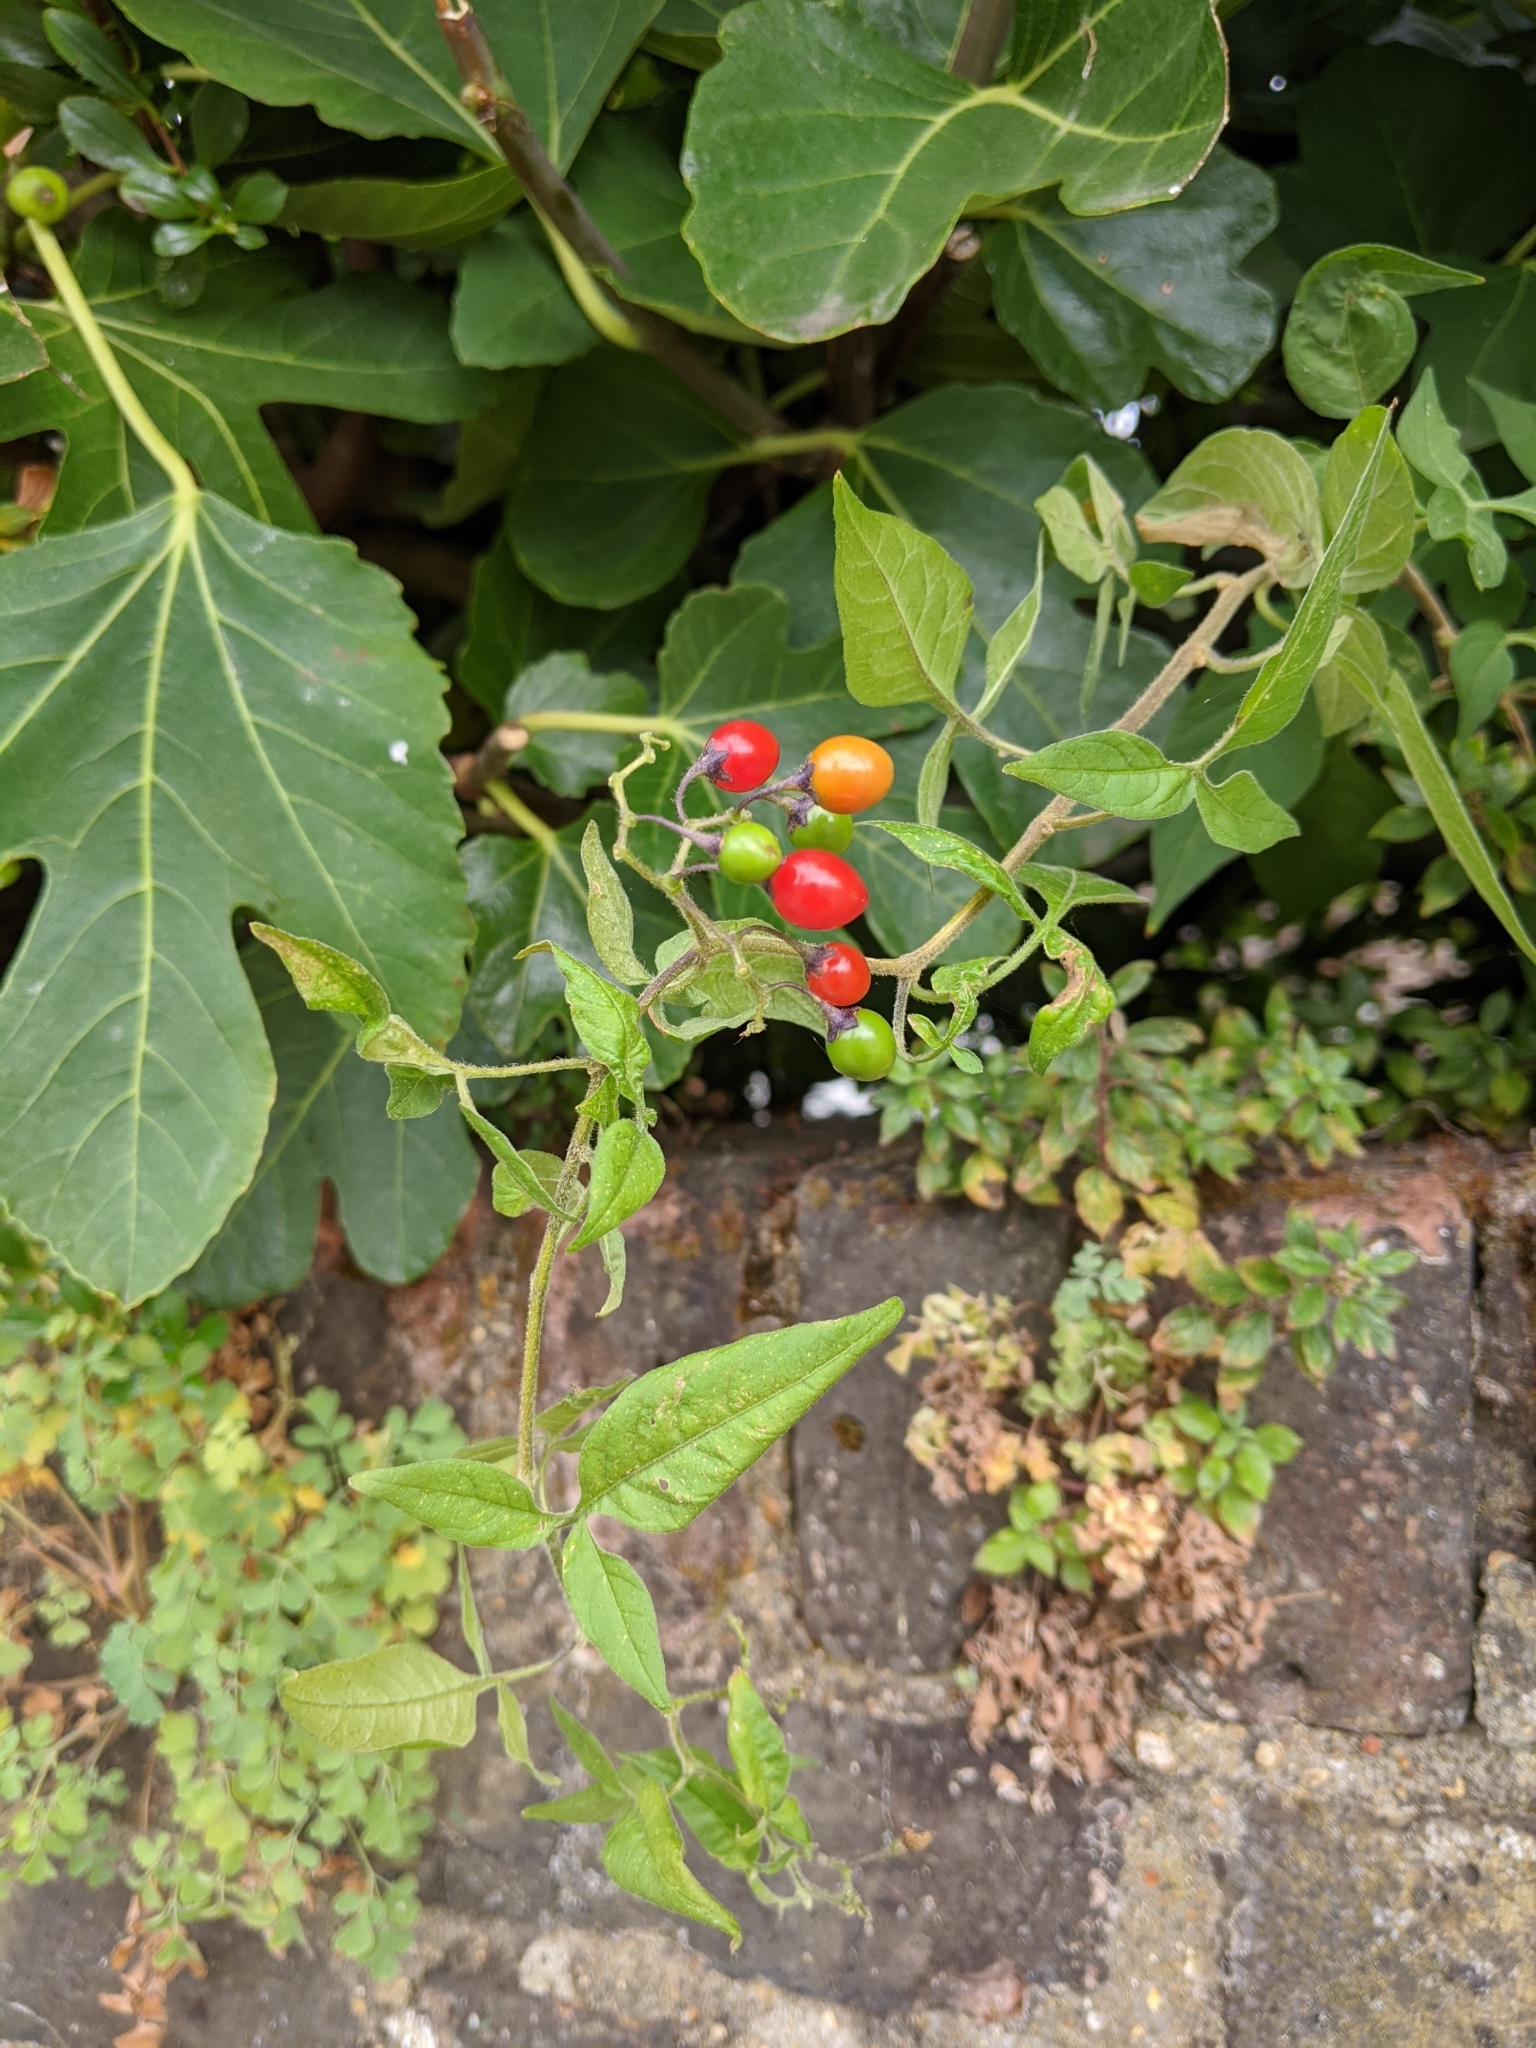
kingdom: Plantae
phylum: Tracheophyta
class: Magnoliopsida
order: Solanales
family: Solanaceae
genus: Solanum
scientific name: Solanum dulcamara
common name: Climbing nightshade
